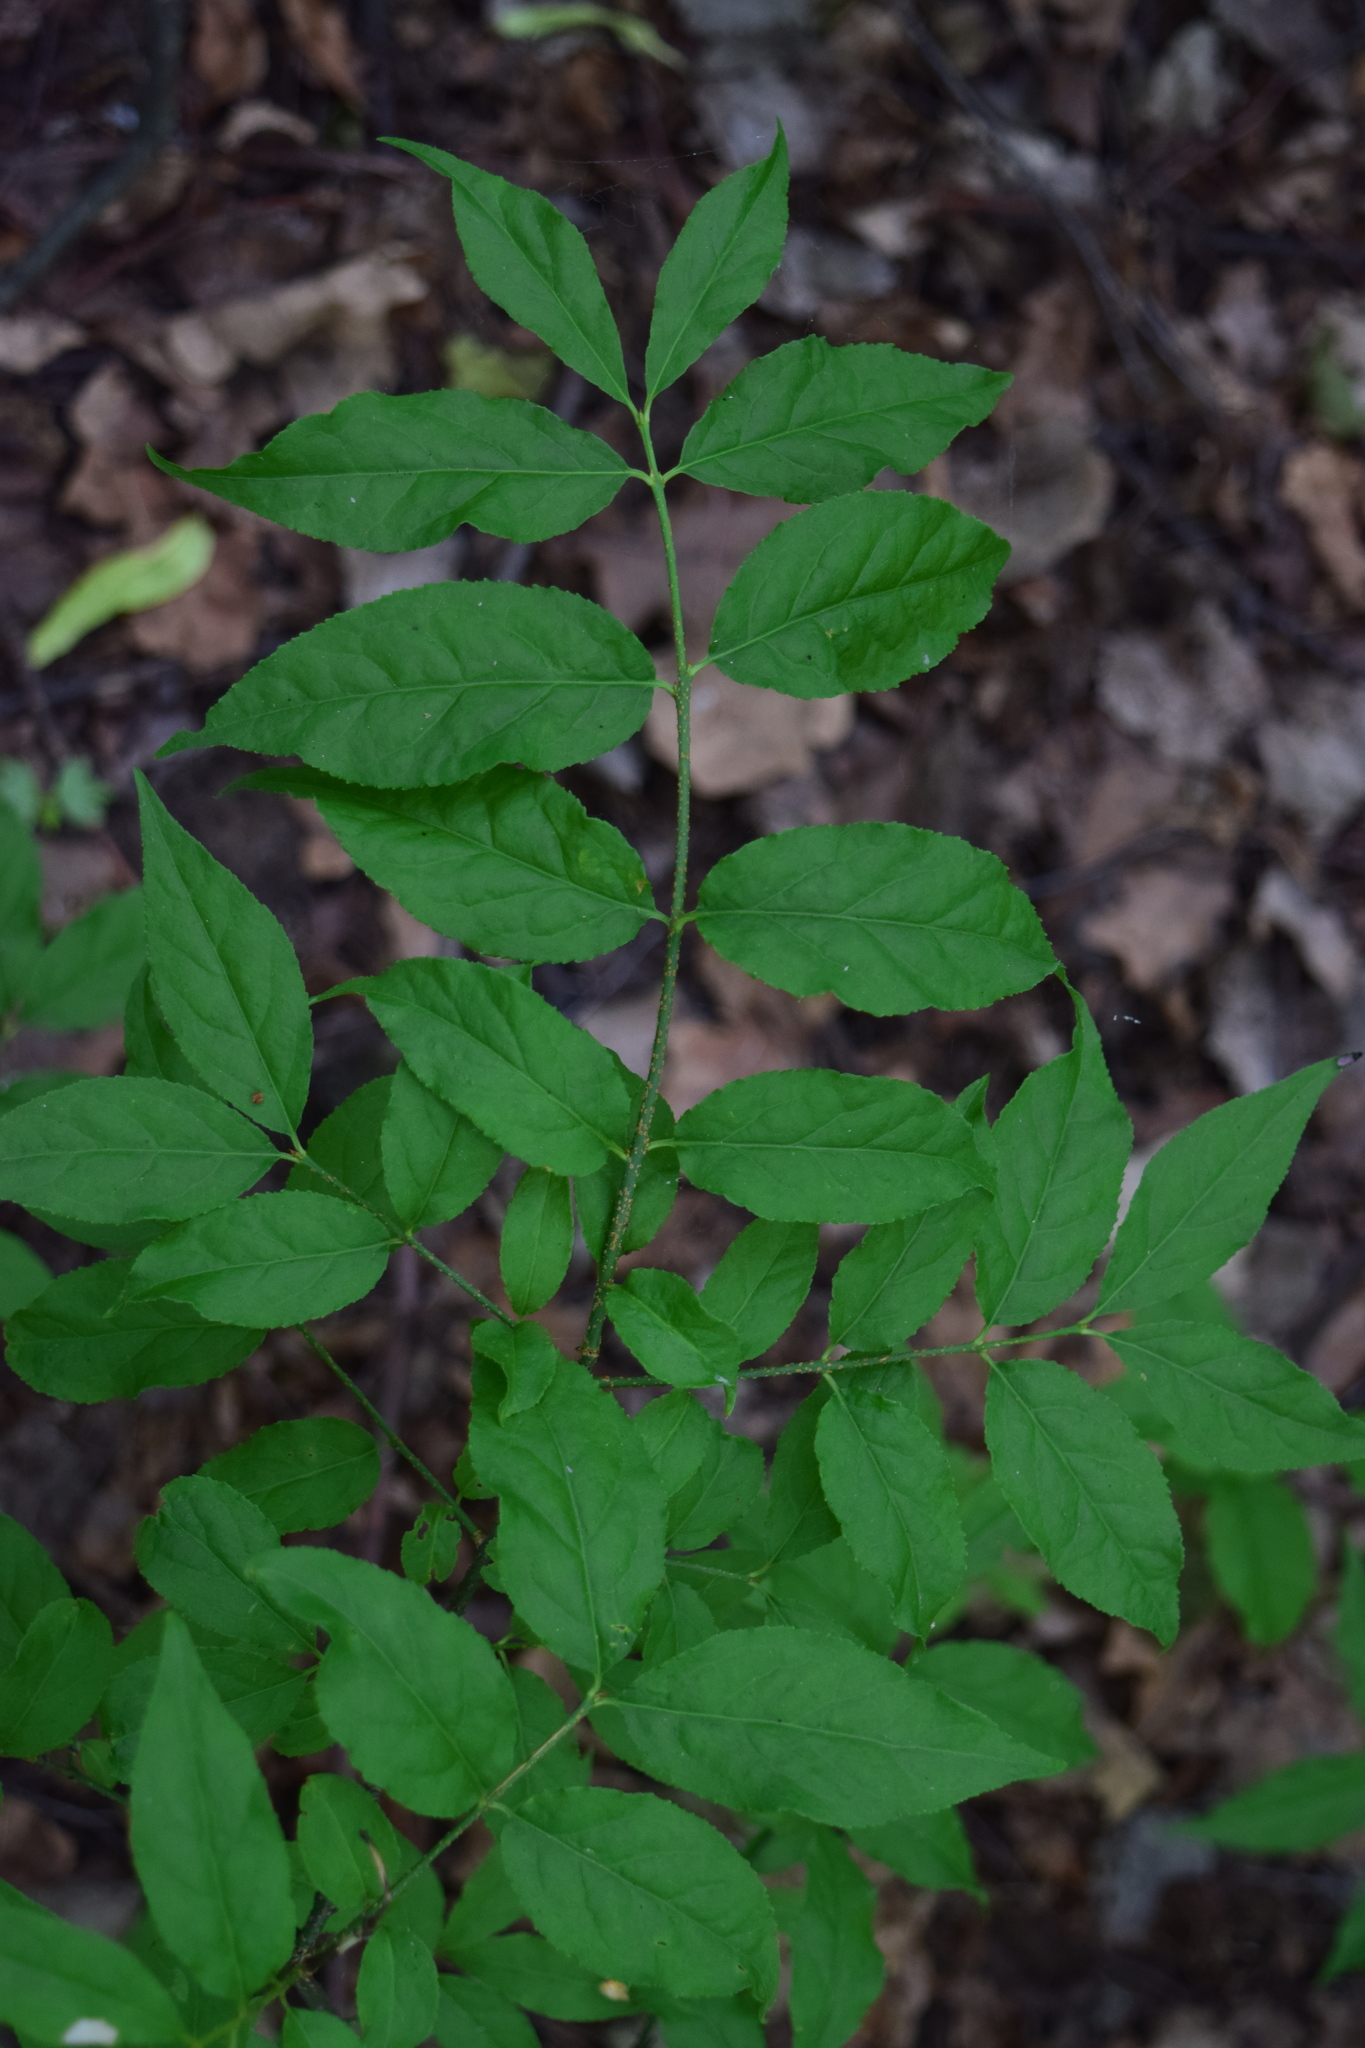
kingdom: Plantae
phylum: Tracheophyta
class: Magnoliopsida
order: Celastrales
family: Celastraceae
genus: Euonymus
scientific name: Euonymus verrucosus
